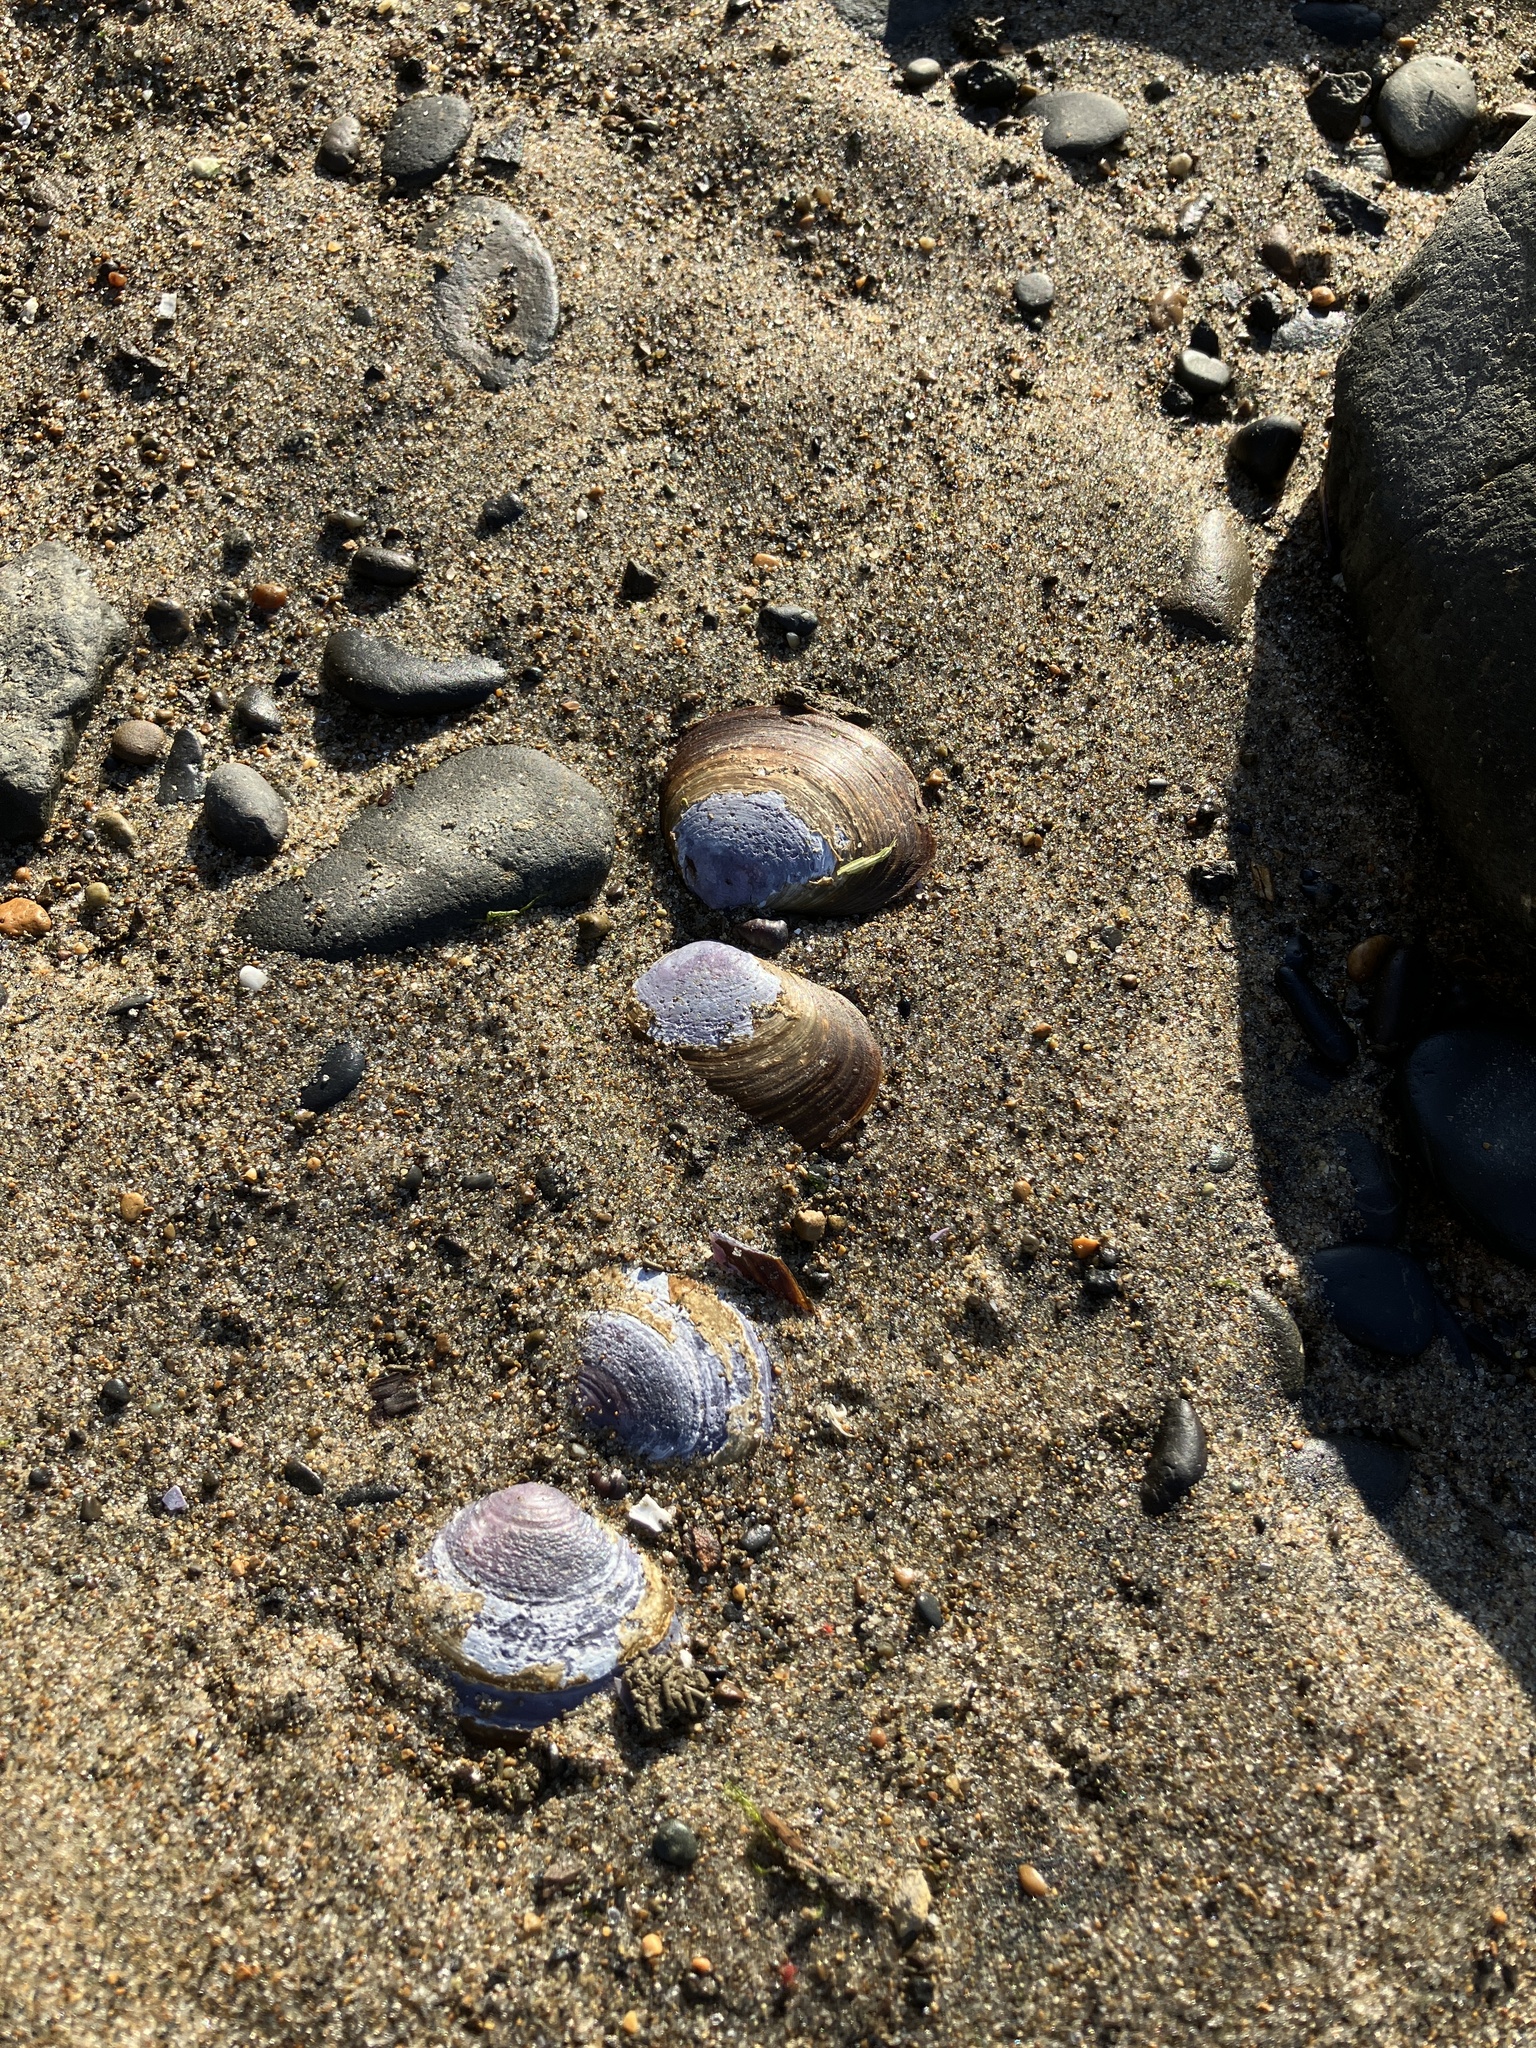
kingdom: Animalia
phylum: Mollusca
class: Bivalvia
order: Cardiida
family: Psammobiidae
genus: Nuttallia
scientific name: Nuttallia obscurata
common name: Purple mahogany-clam
